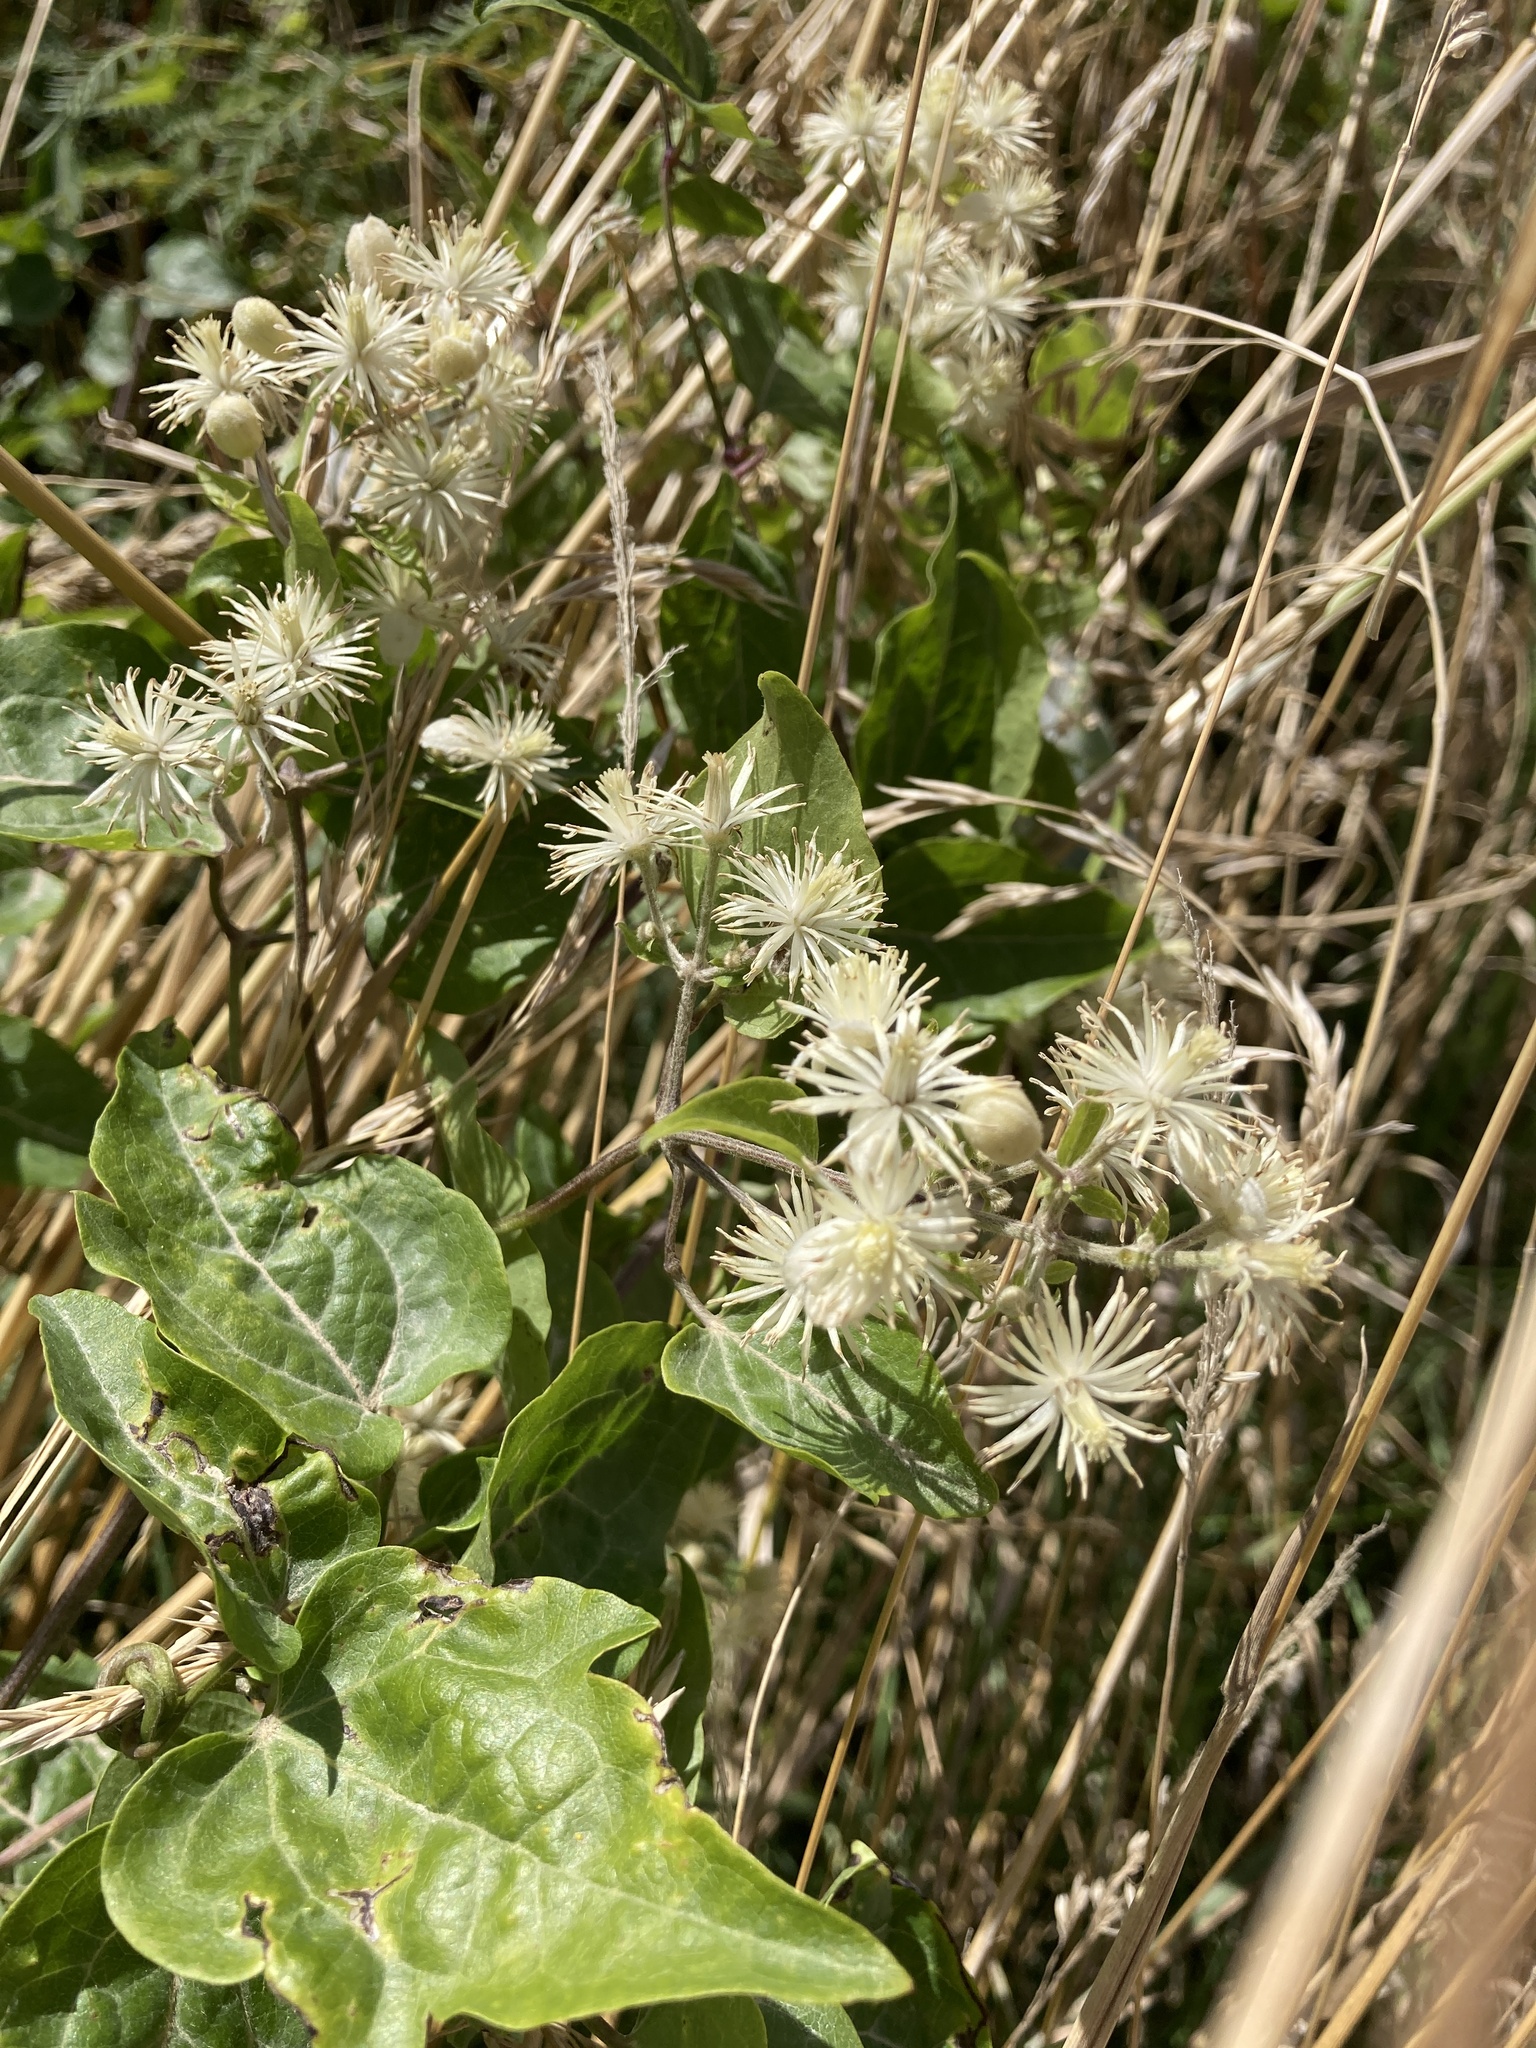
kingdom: Plantae
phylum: Tracheophyta
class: Magnoliopsida
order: Ranunculales
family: Ranunculaceae
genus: Clematis
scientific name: Clematis vitalba
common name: Evergreen clematis
